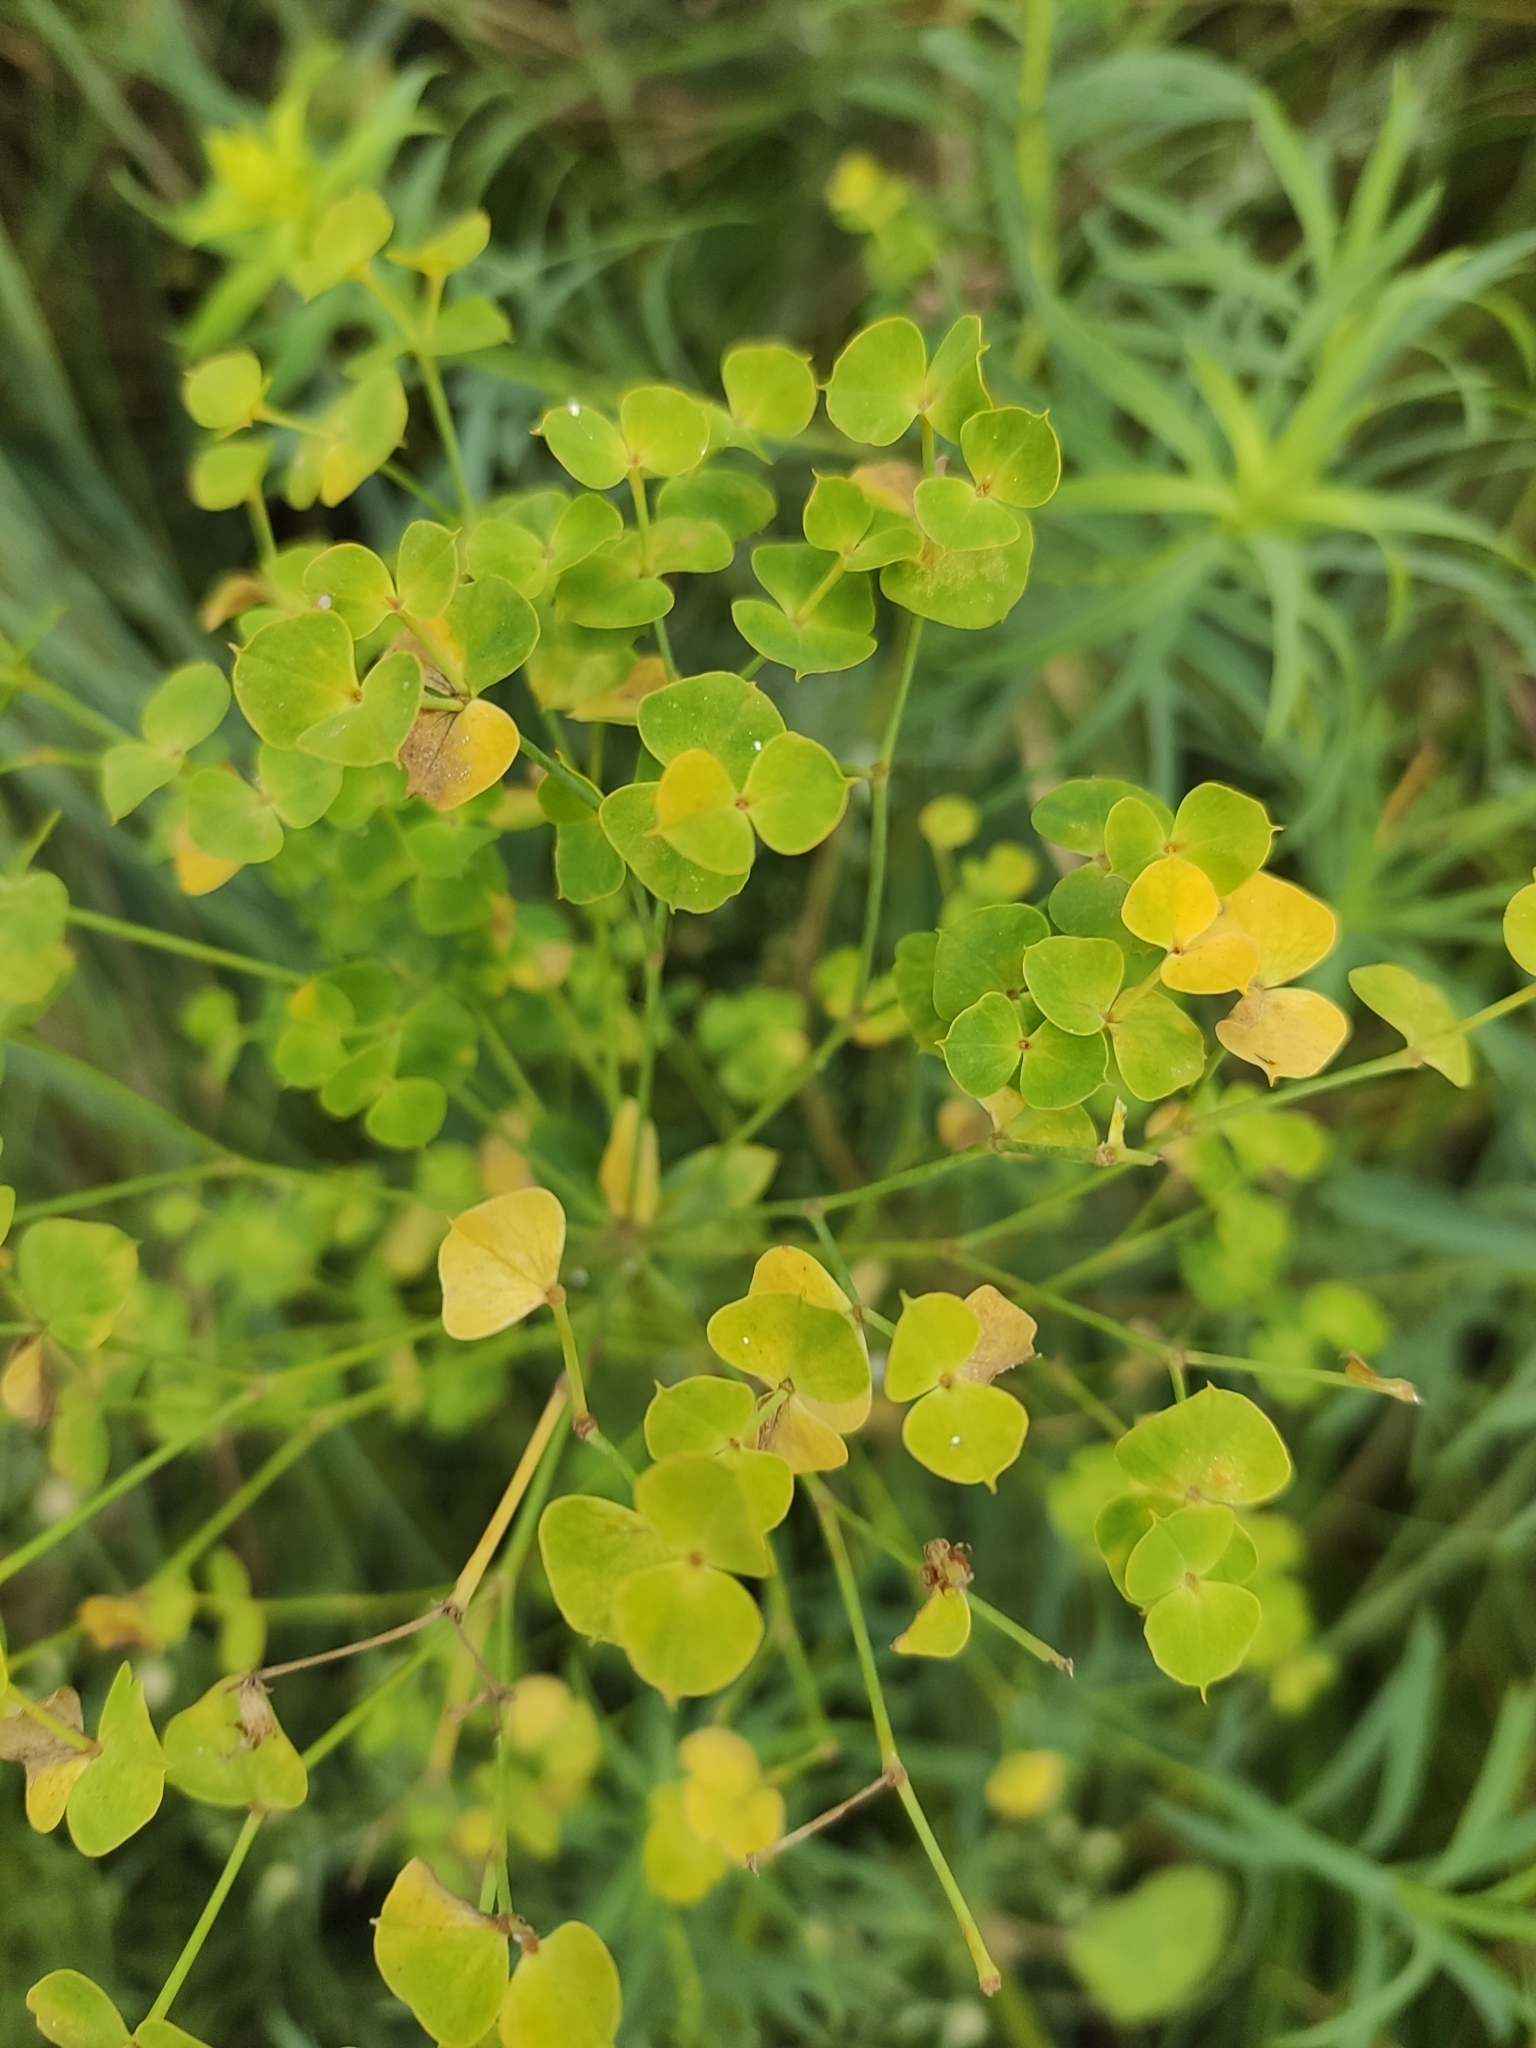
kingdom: Plantae
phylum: Tracheophyta
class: Magnoliopsida
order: Malpighiales
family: Euphorbiaceae
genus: Euphorbia
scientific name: Euphorbia virgata
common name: Leafy spurge
